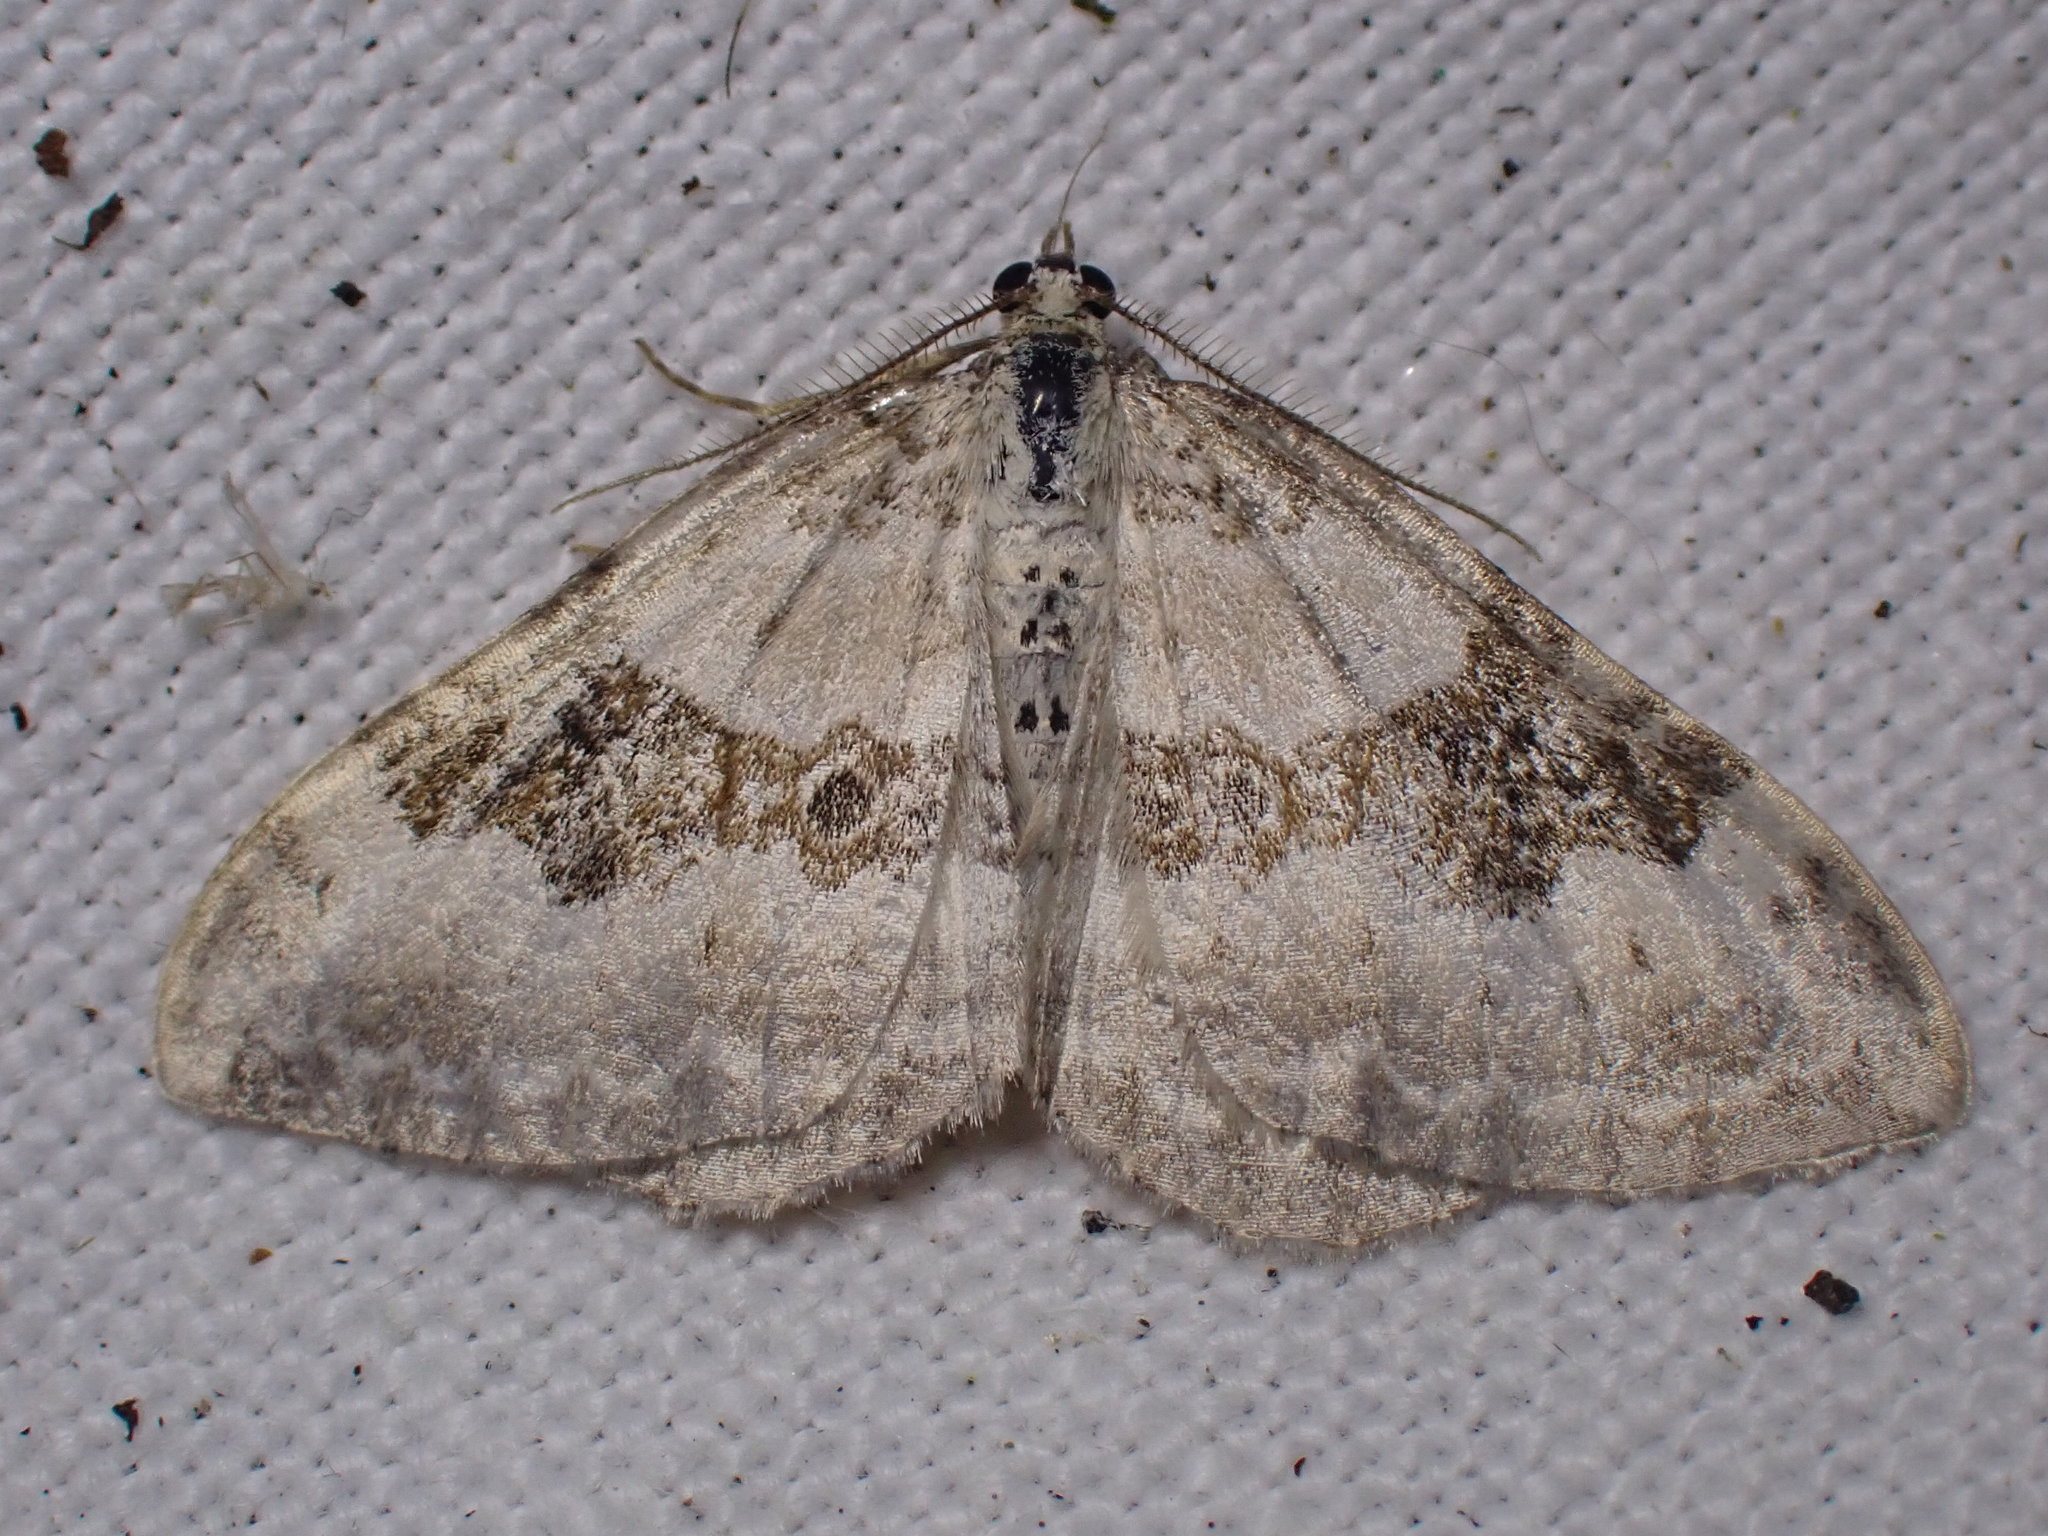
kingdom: Animalia
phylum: Arthropoda
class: Insecta
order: Lepidoptera
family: Geometridae
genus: Xanthorhoe
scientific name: Xanthorhoe montanata
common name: Silver-ground carpet
